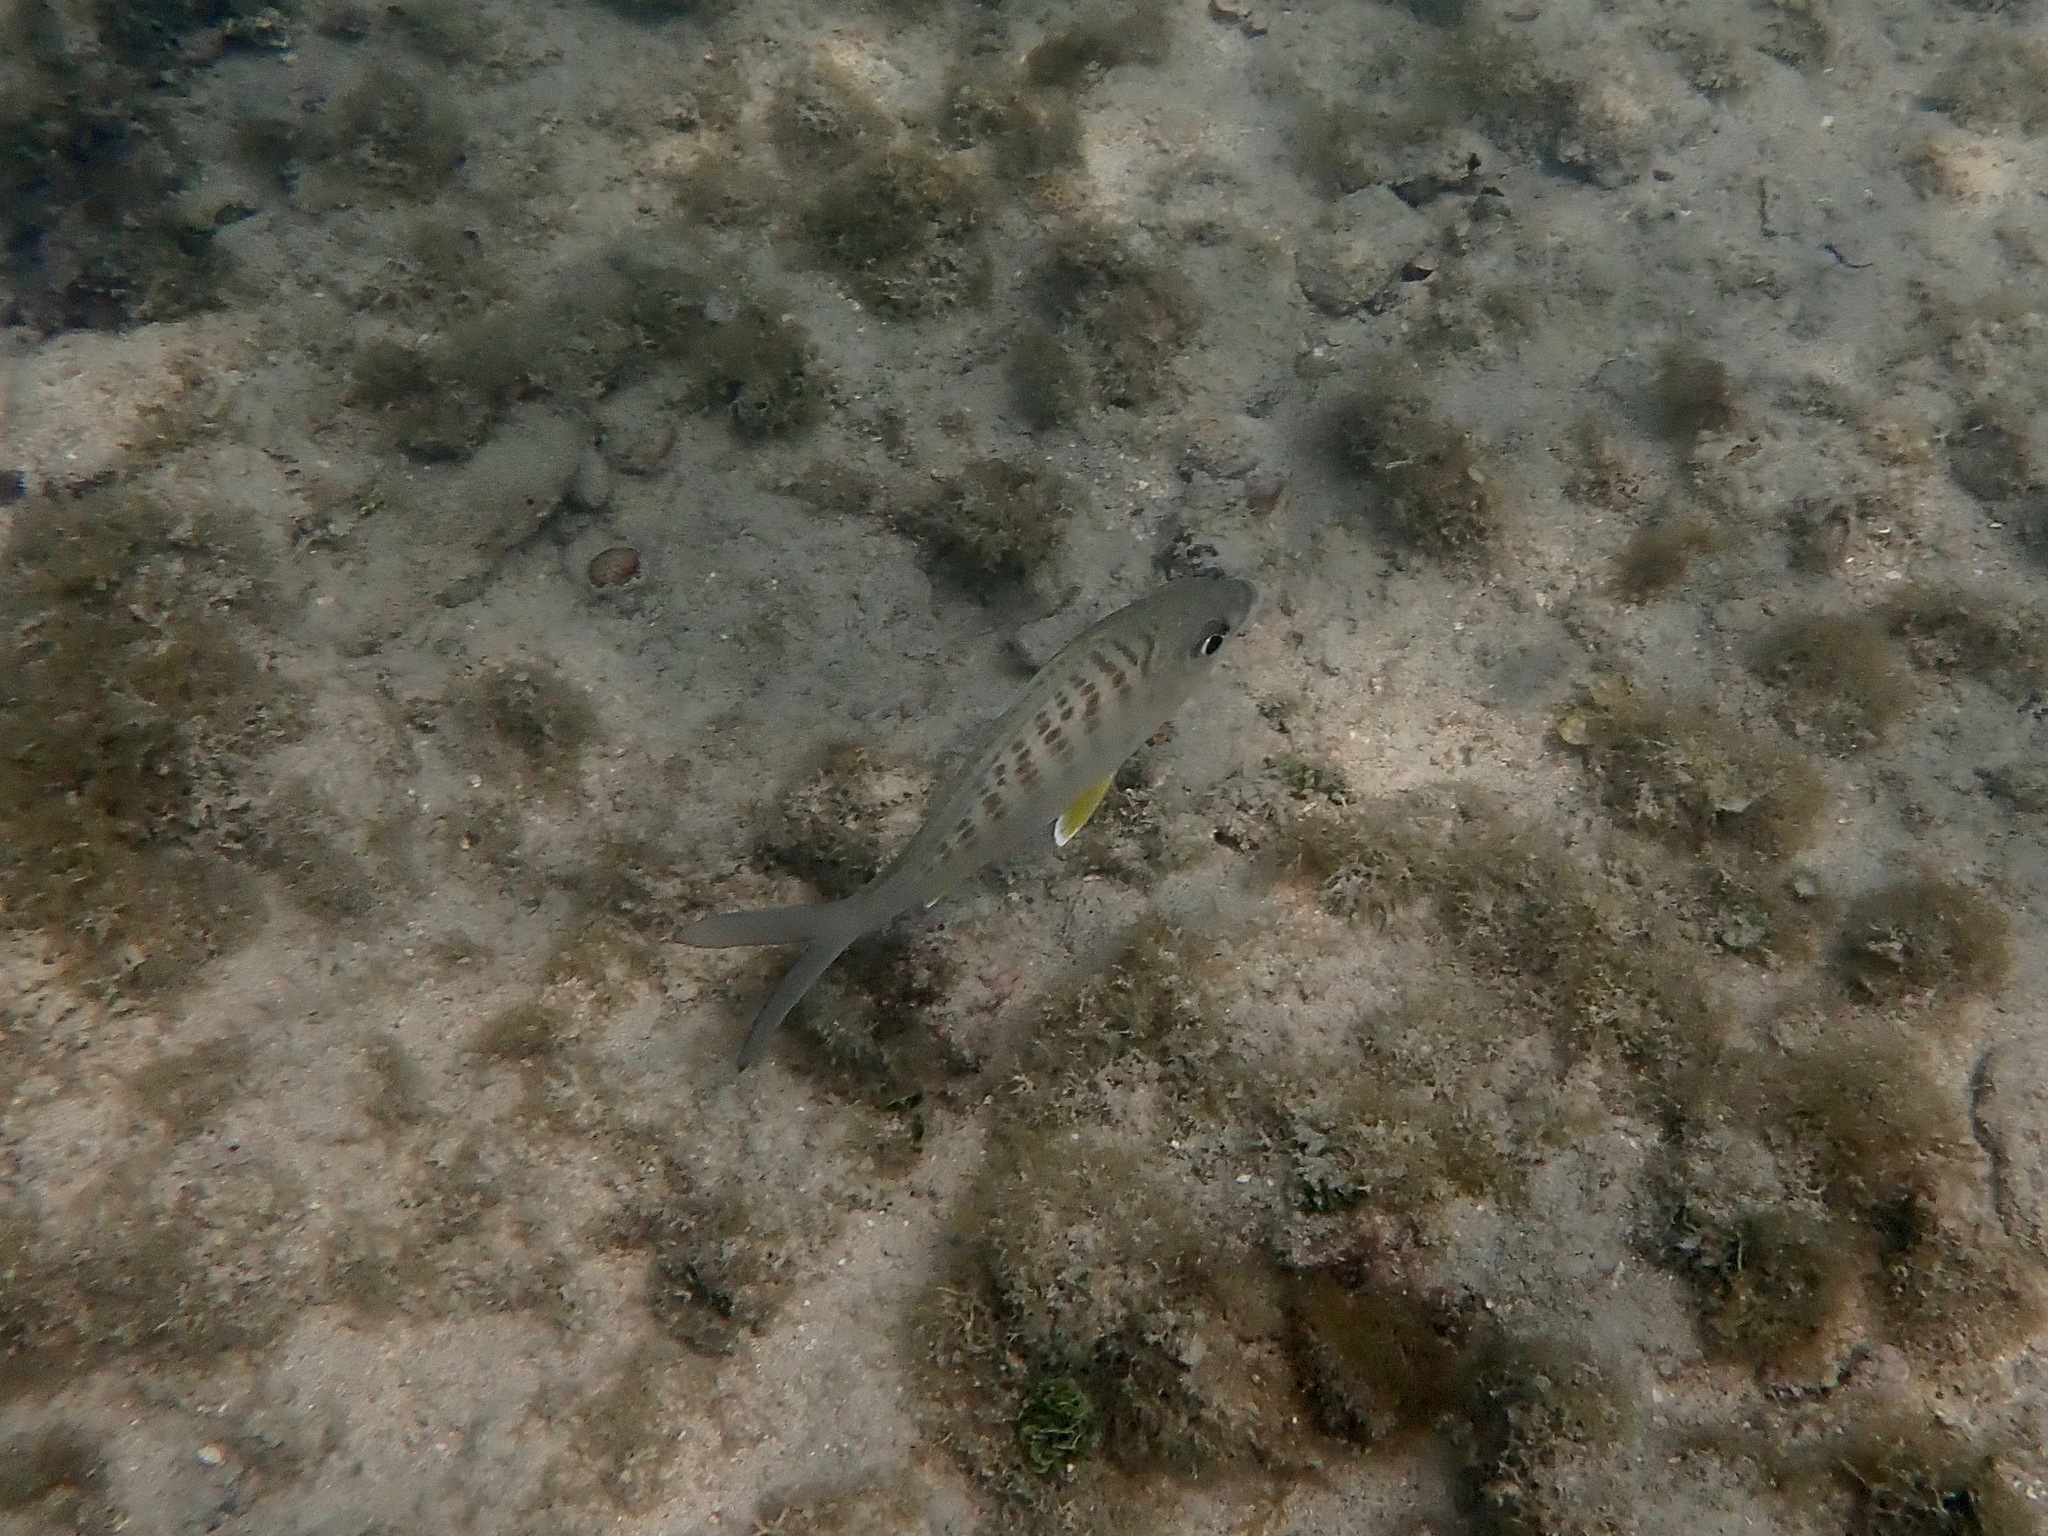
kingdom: Animalia
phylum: Chordata
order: Perciformes
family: Gerreidae
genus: Gerres
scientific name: Gerres cinereus
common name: Hedow
